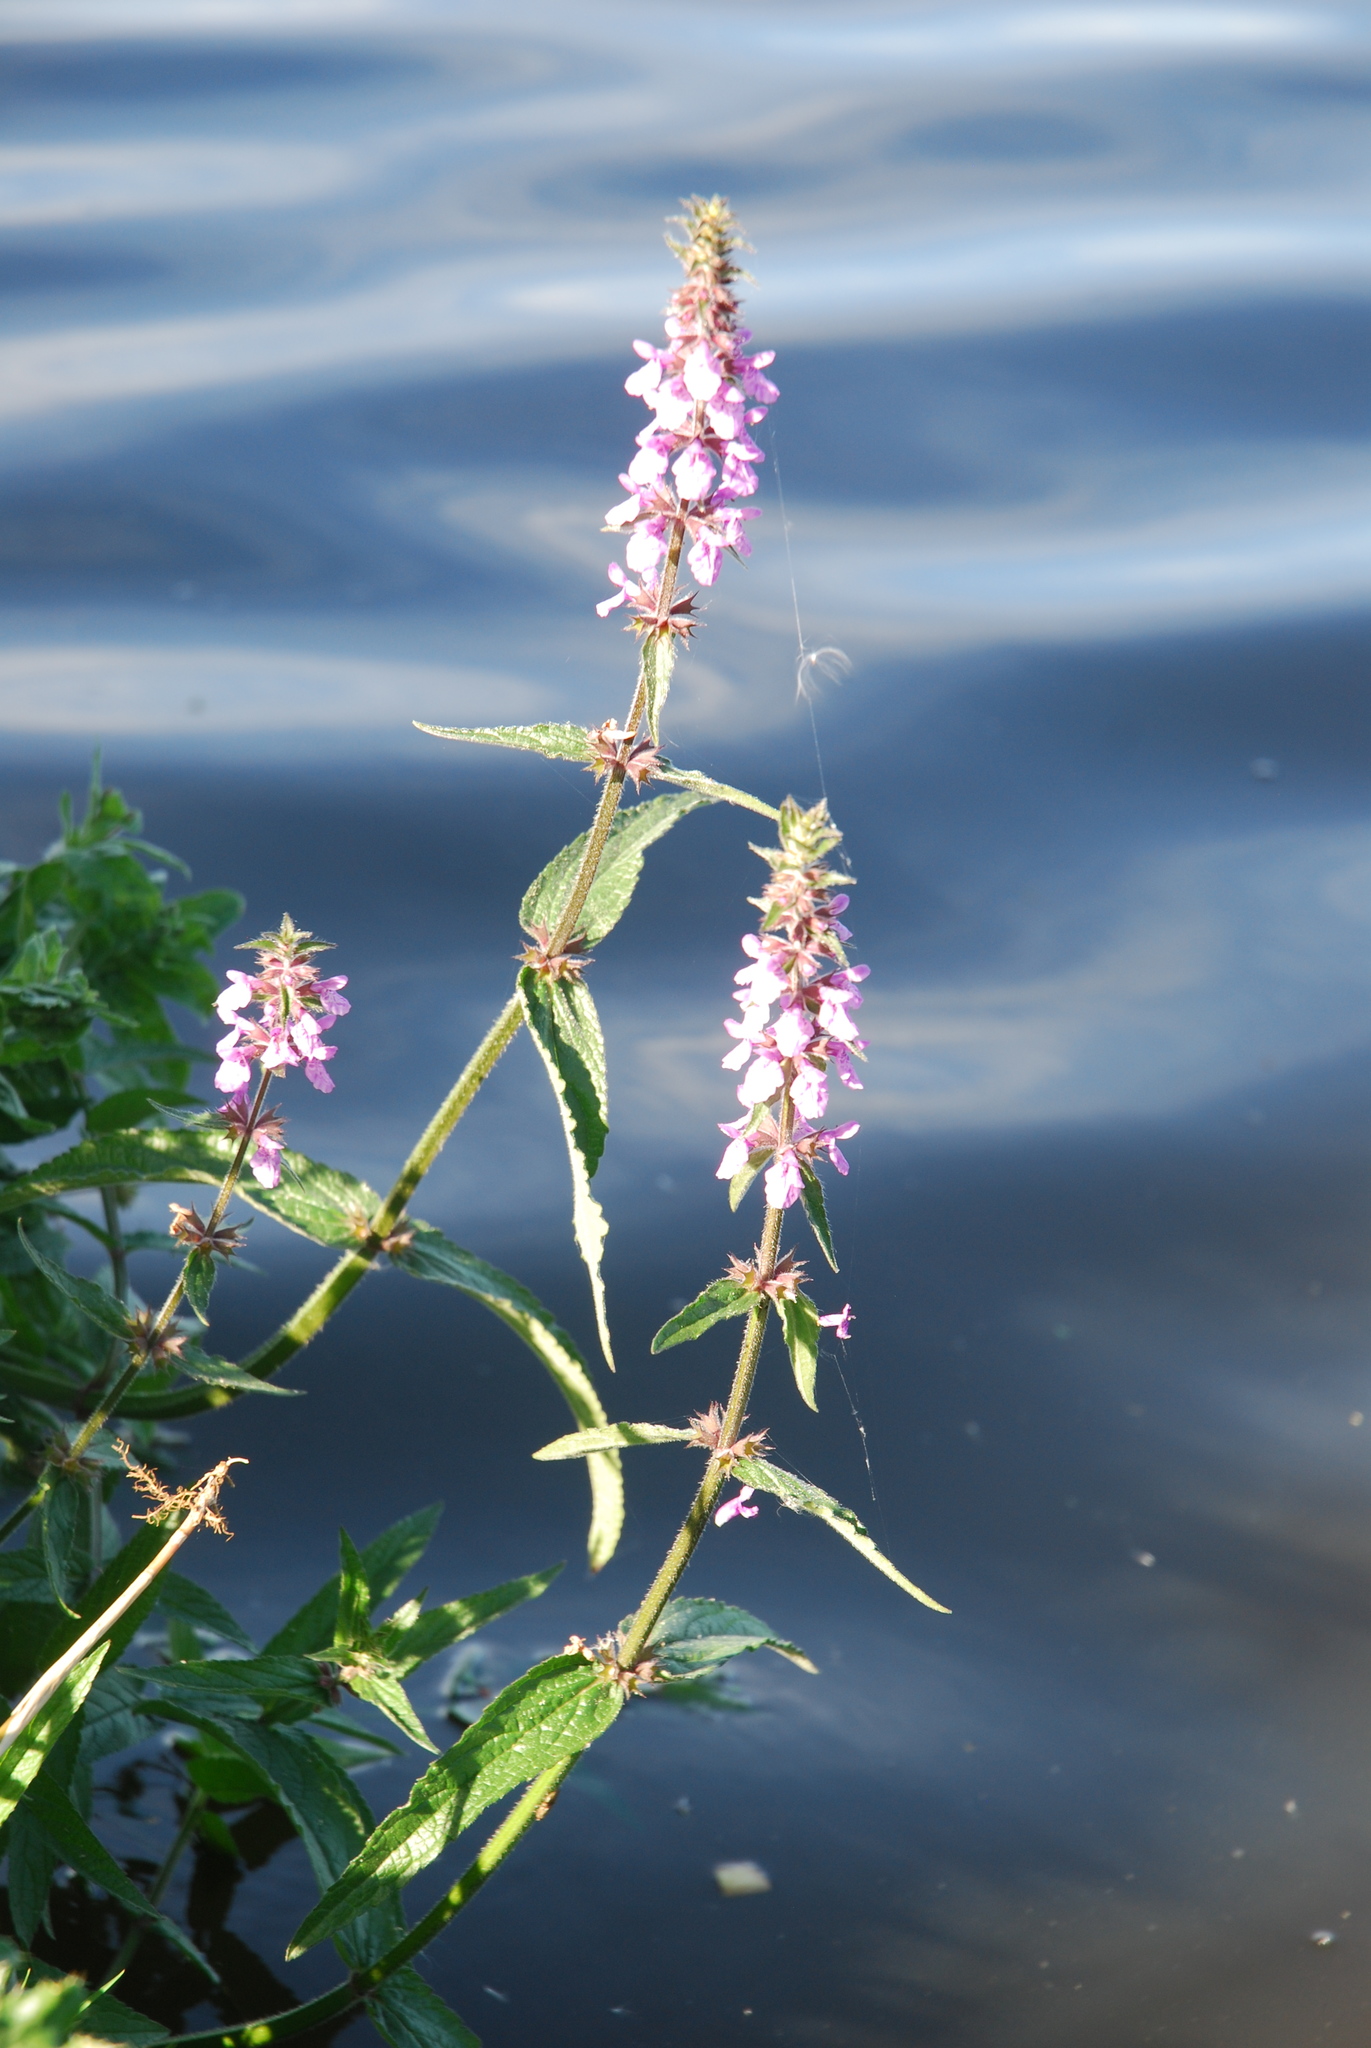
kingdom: Plantae
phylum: Tracheophyta
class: Magnoliopsida
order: Lamiales
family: Lamiaceae
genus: Stachys
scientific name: Stachys palustris
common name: Marsh woundwort
